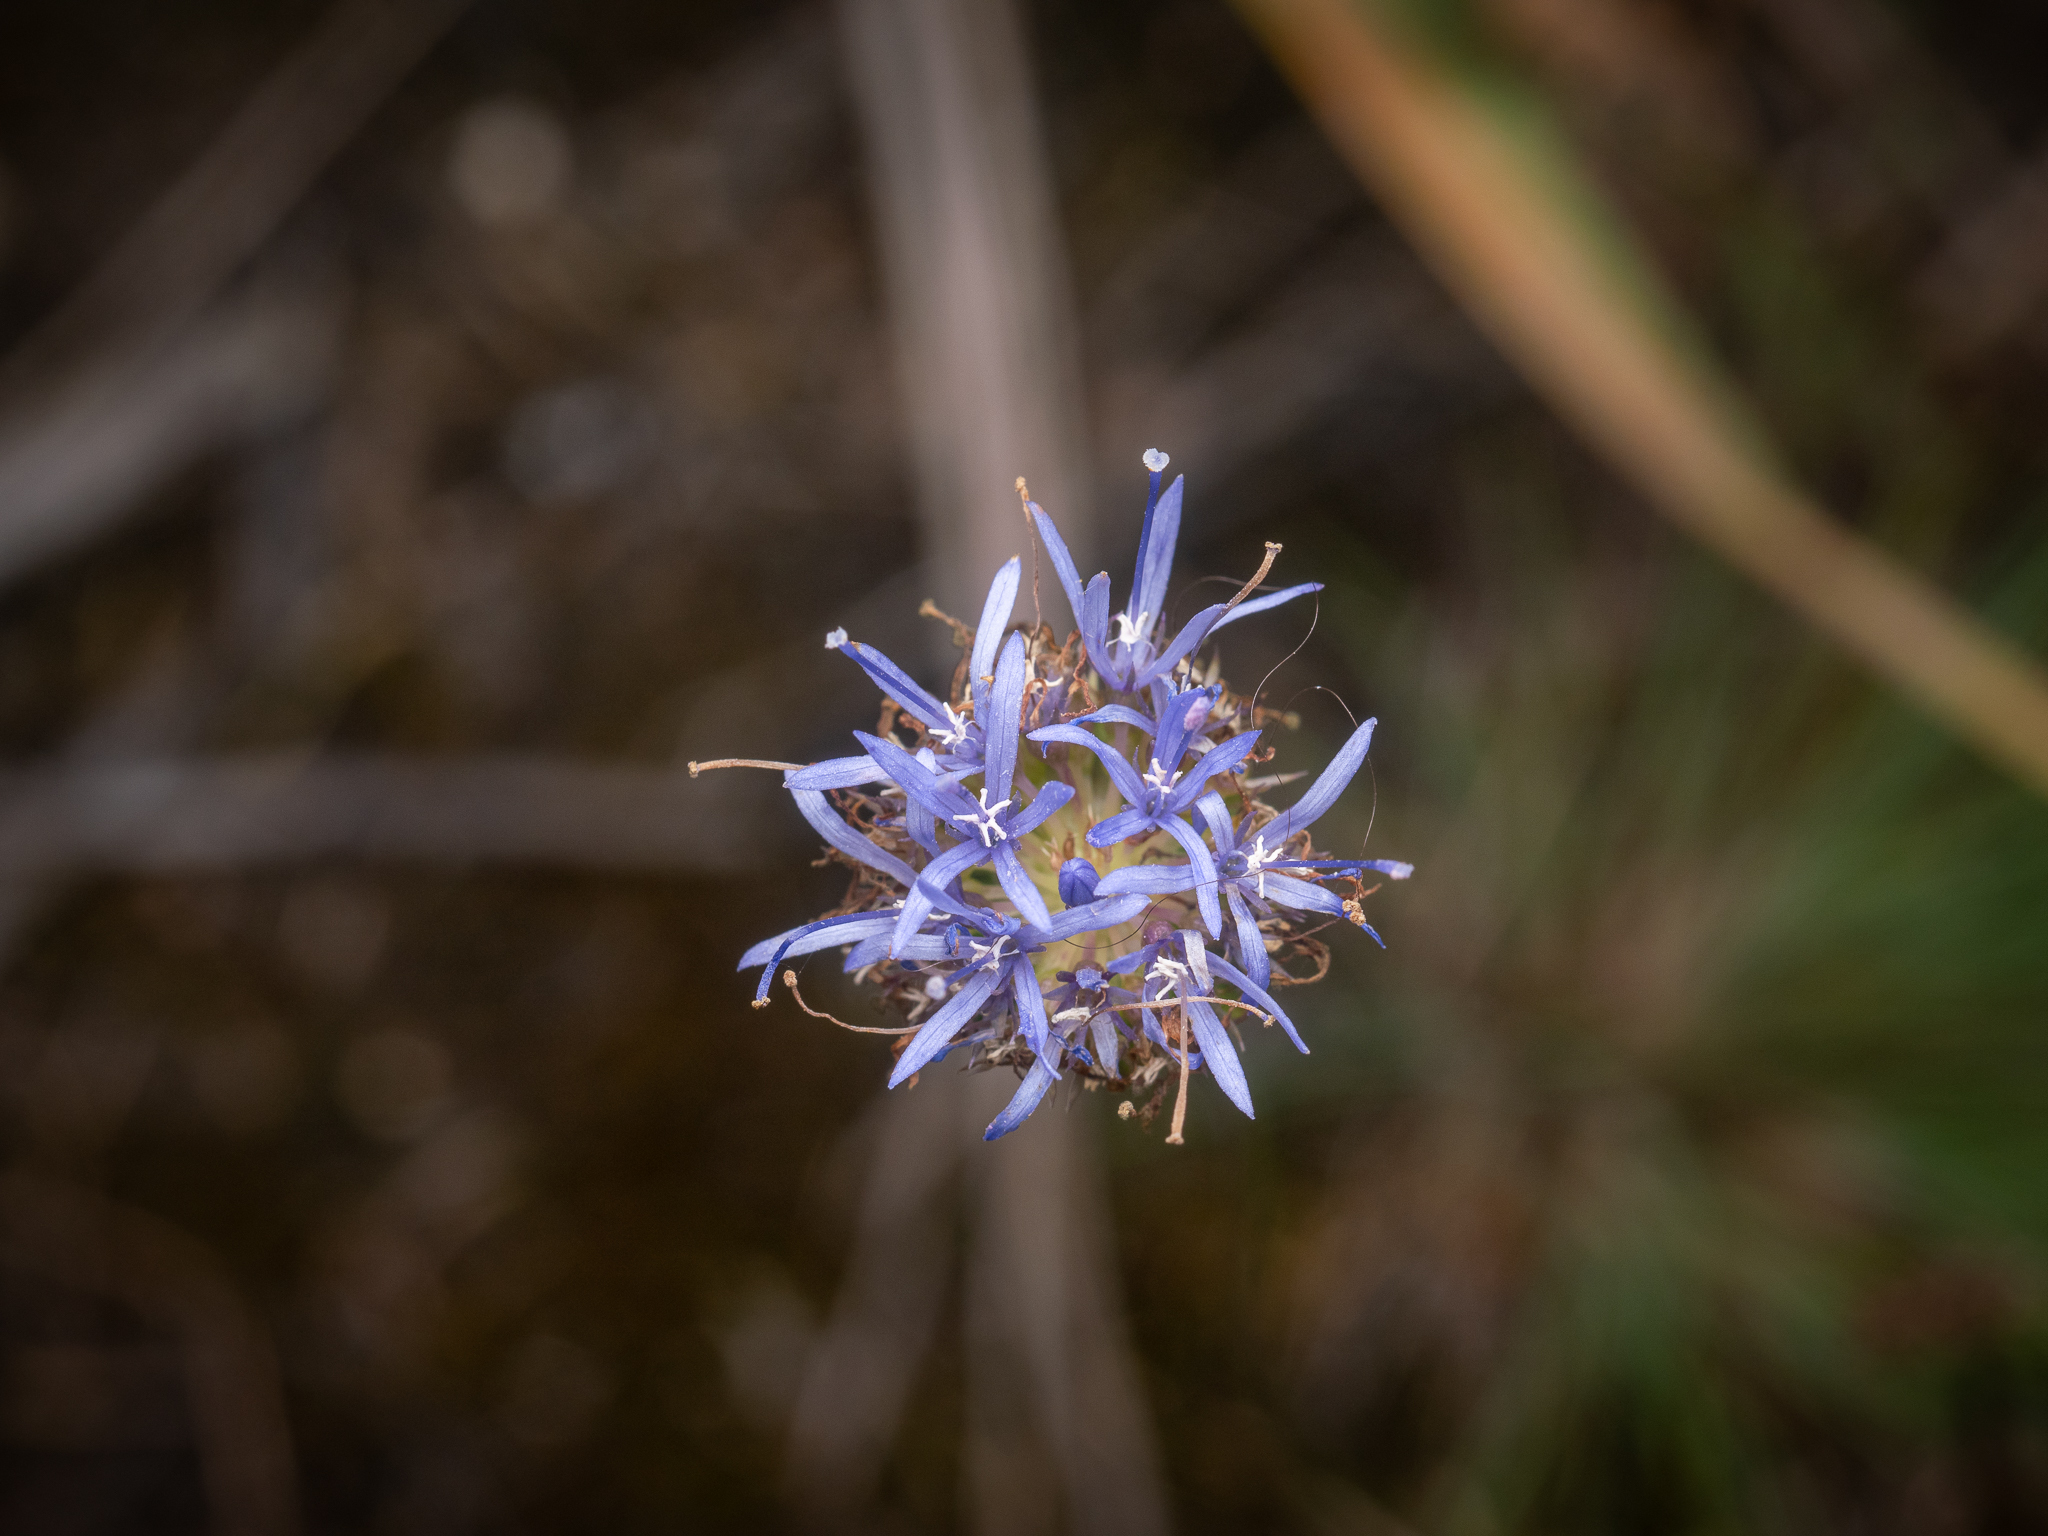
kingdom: Plantae
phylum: Tracheophyta
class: Magnoliopsida
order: Asterales
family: Campanulaceae
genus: Jasione
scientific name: Jasione montana
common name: Sheep's-bit
